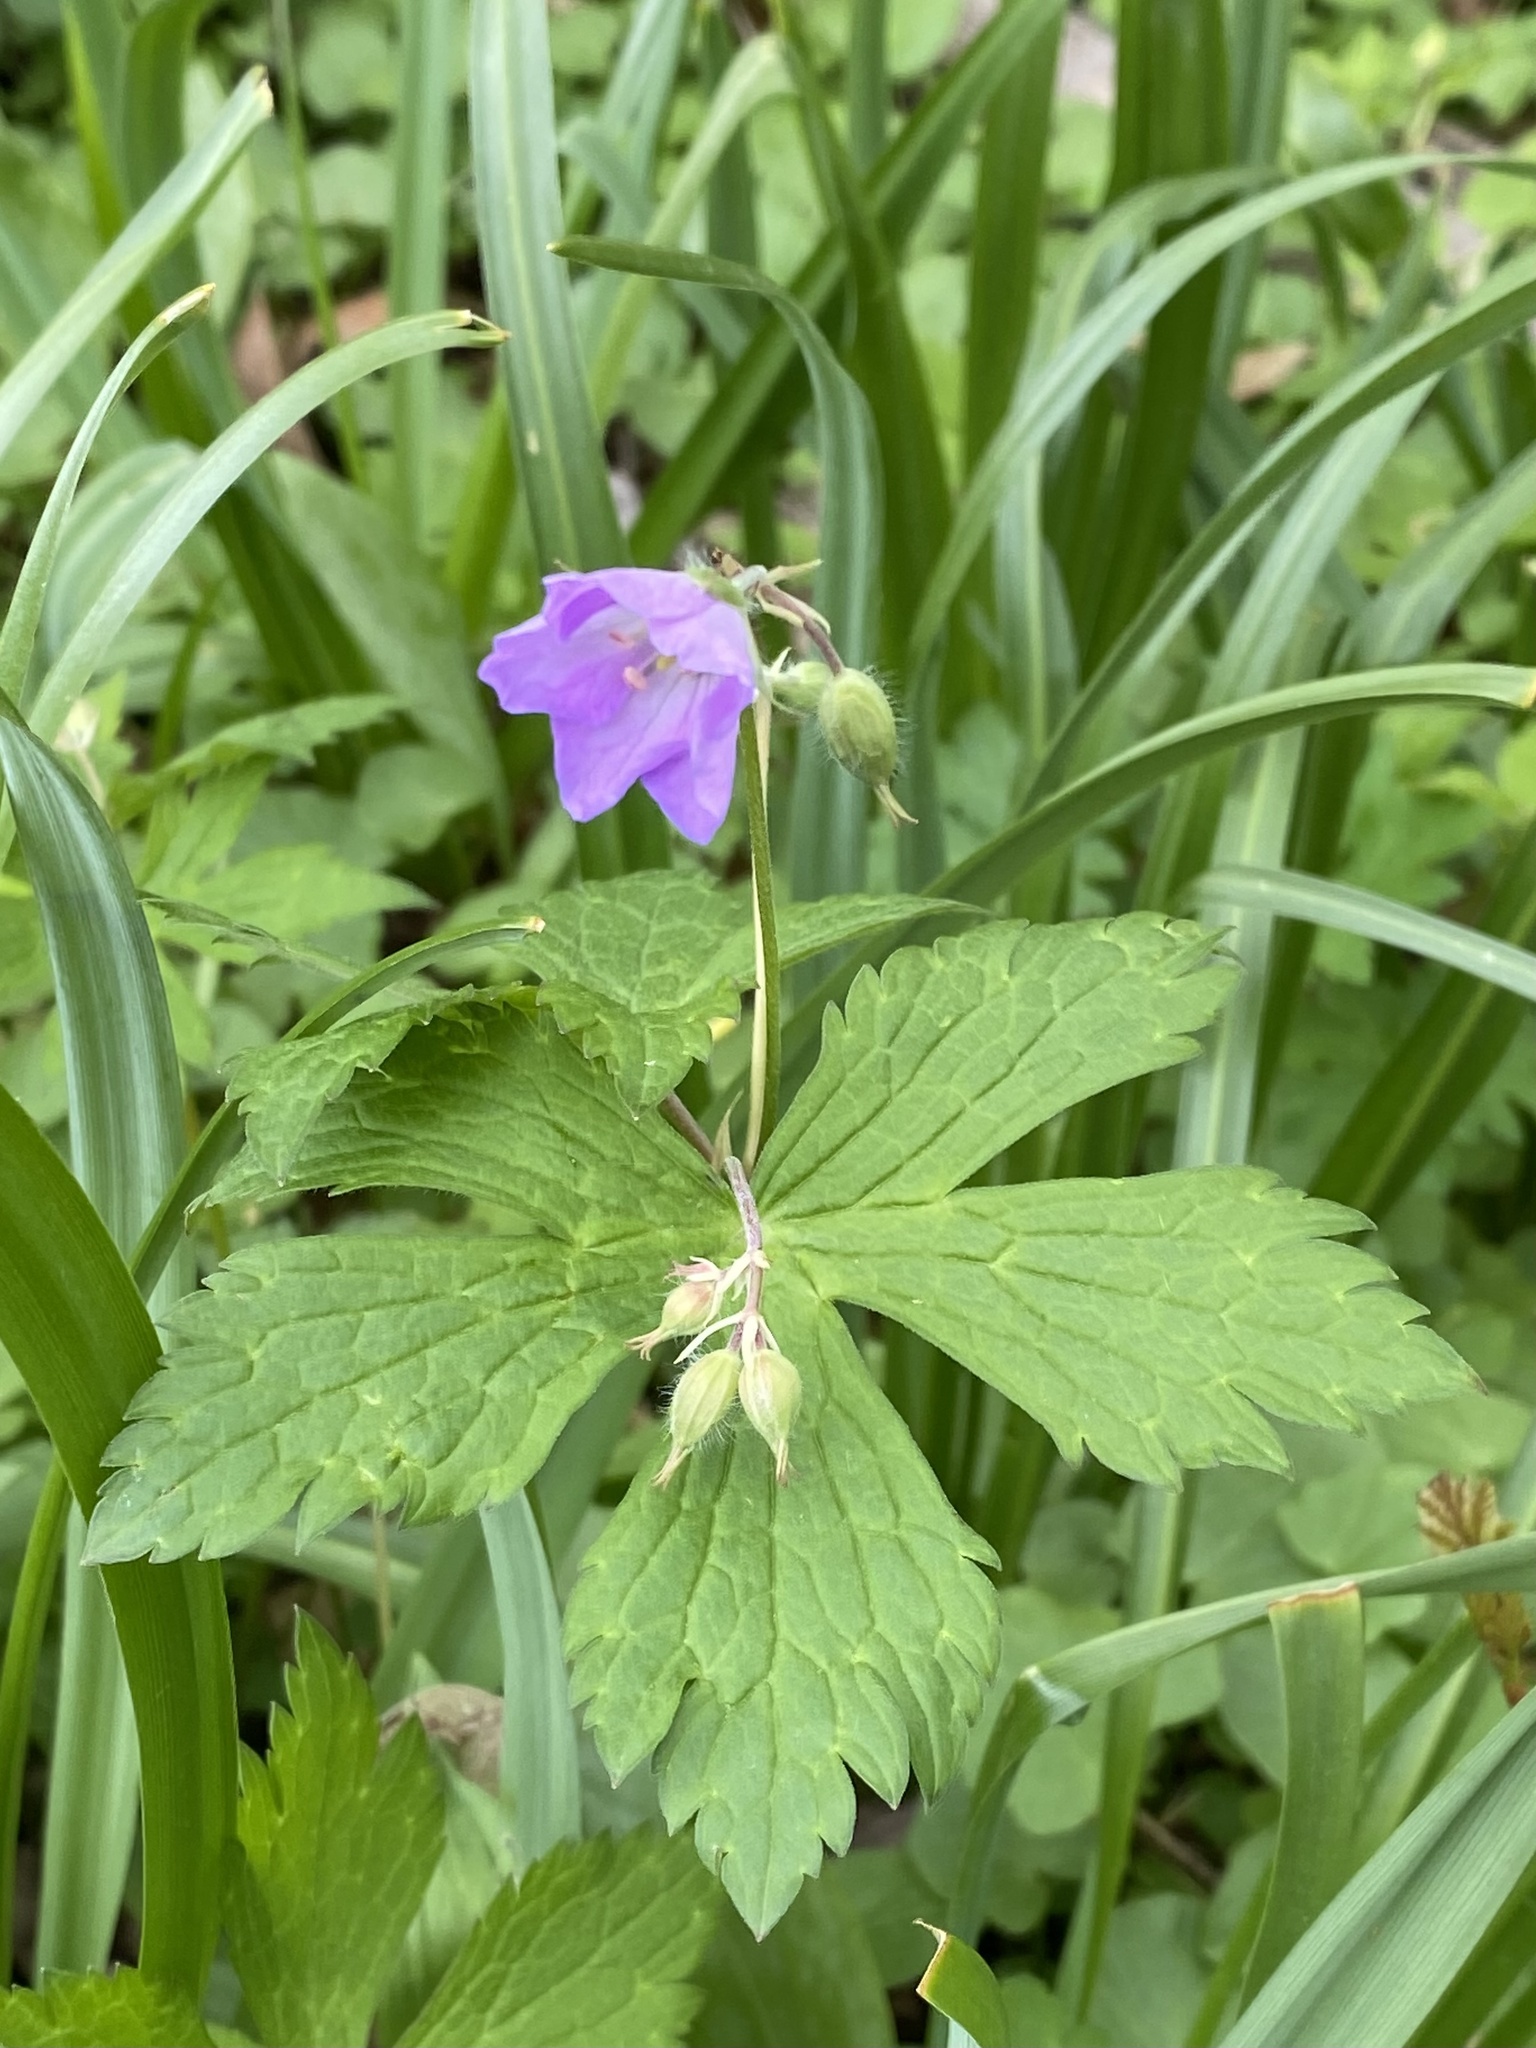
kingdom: Plantae
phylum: Tracheophyta
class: Magnoliopsida
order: Geraniales
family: Geraniaceae
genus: Geranium
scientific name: Geranium maculatum
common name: Spotted geranium
